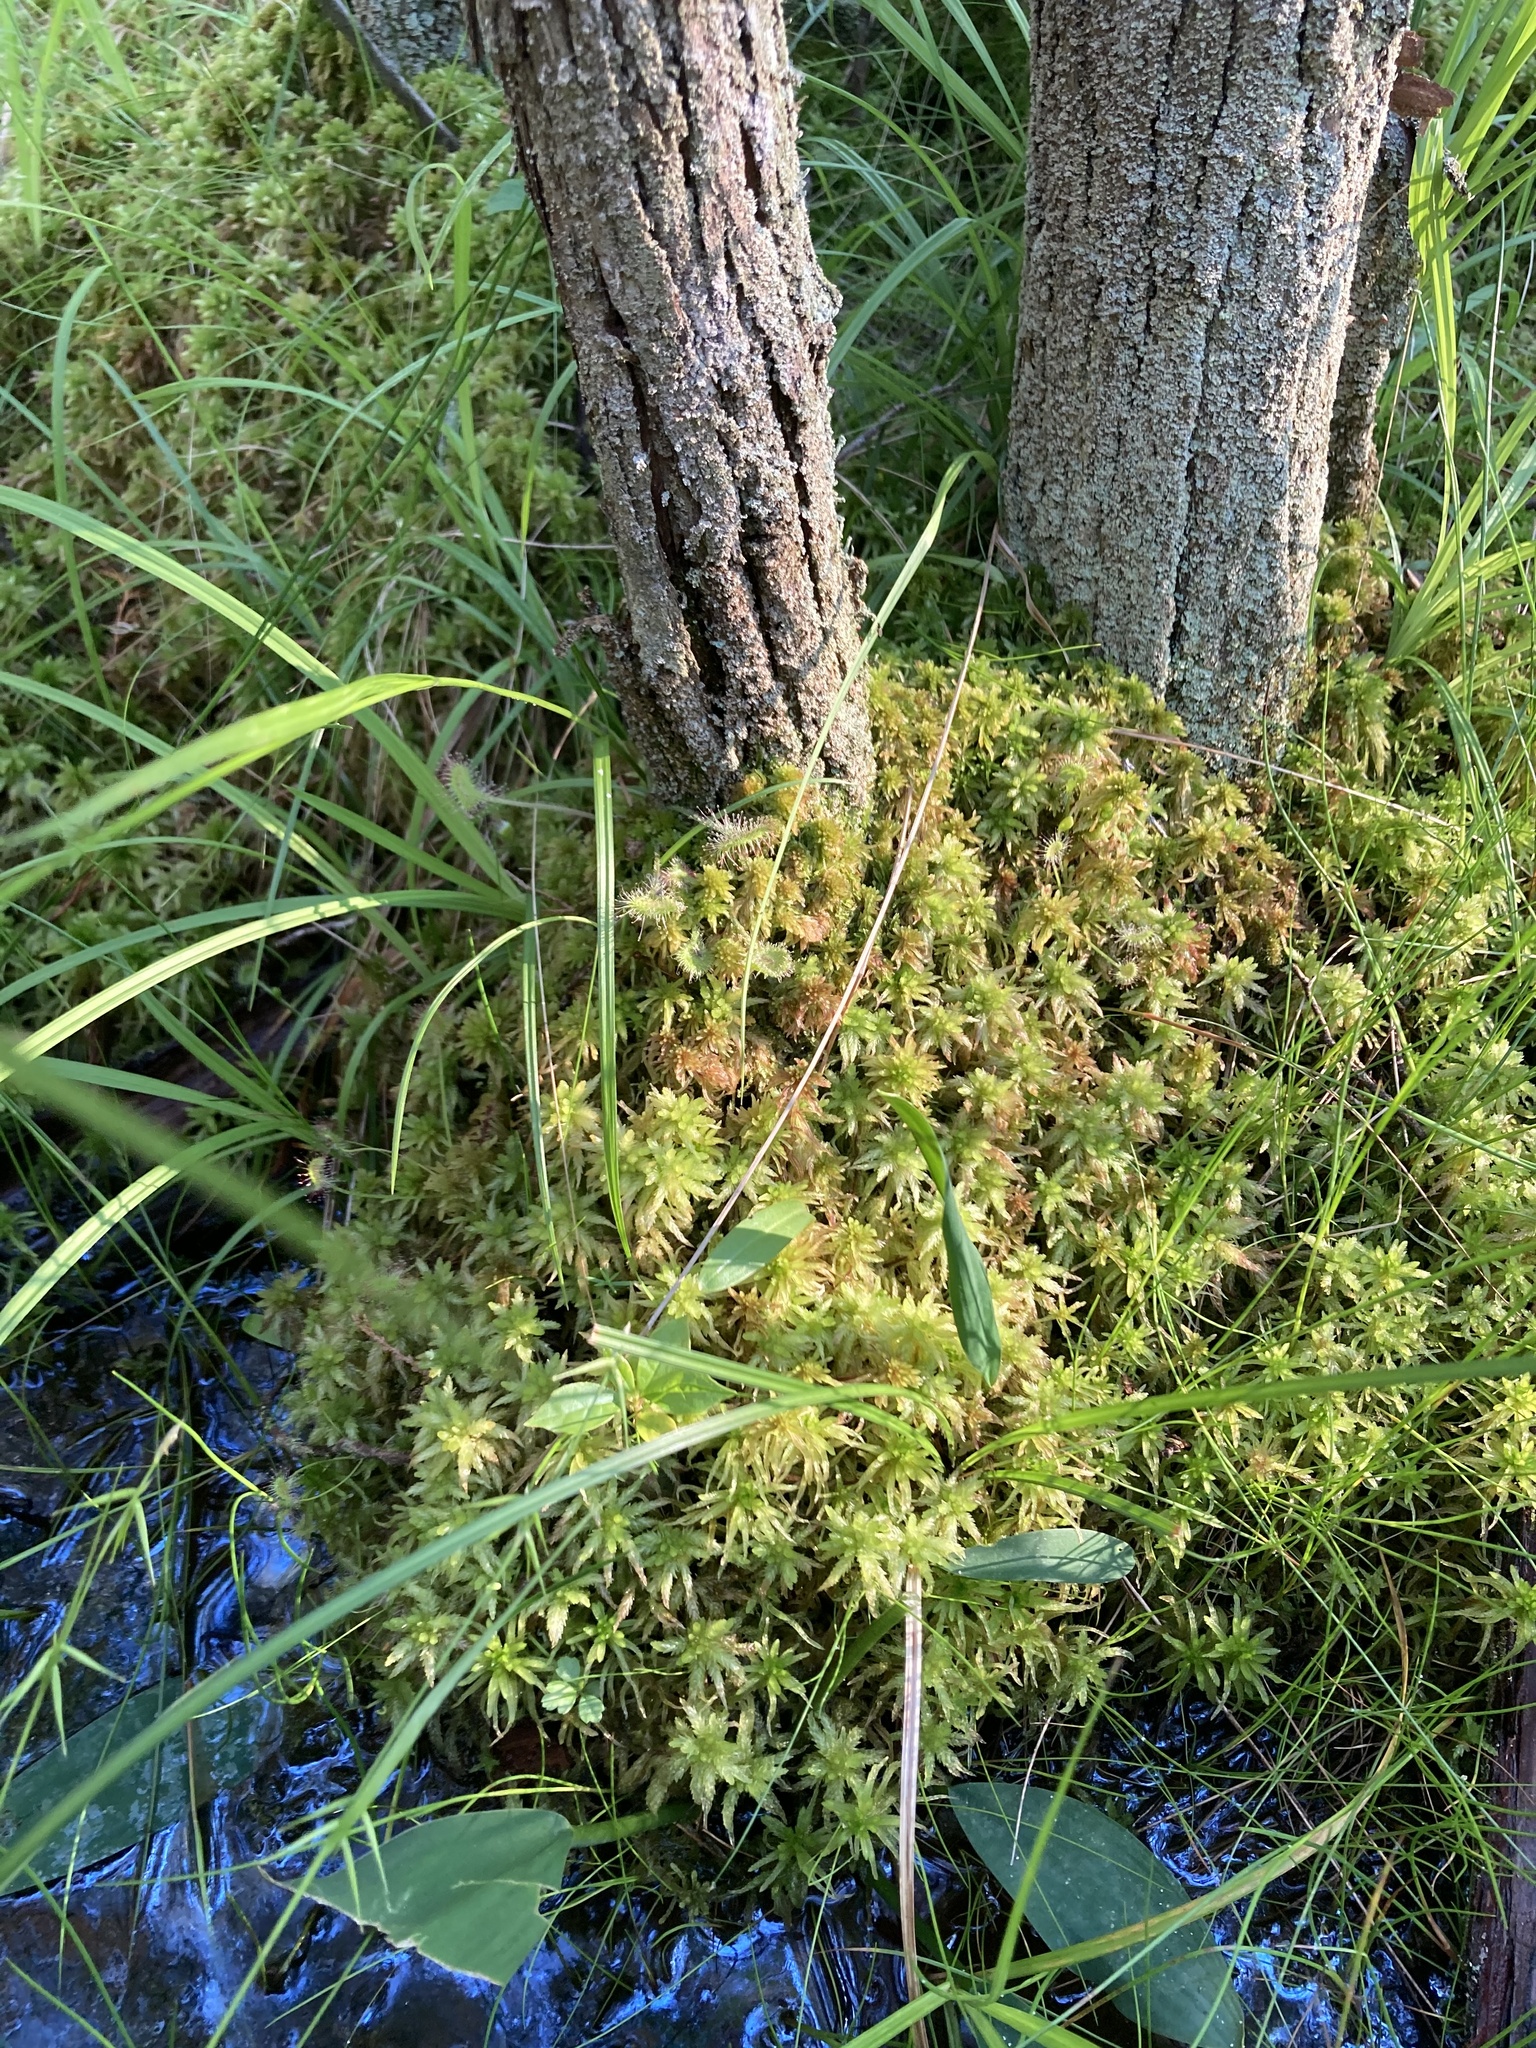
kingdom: Plantae
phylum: Tracheophyta
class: Magnoliopsida
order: Caryophyllales
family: Droseraceae
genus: Drosera
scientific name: Drosera rotundifolia
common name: Round-leaved sundew
